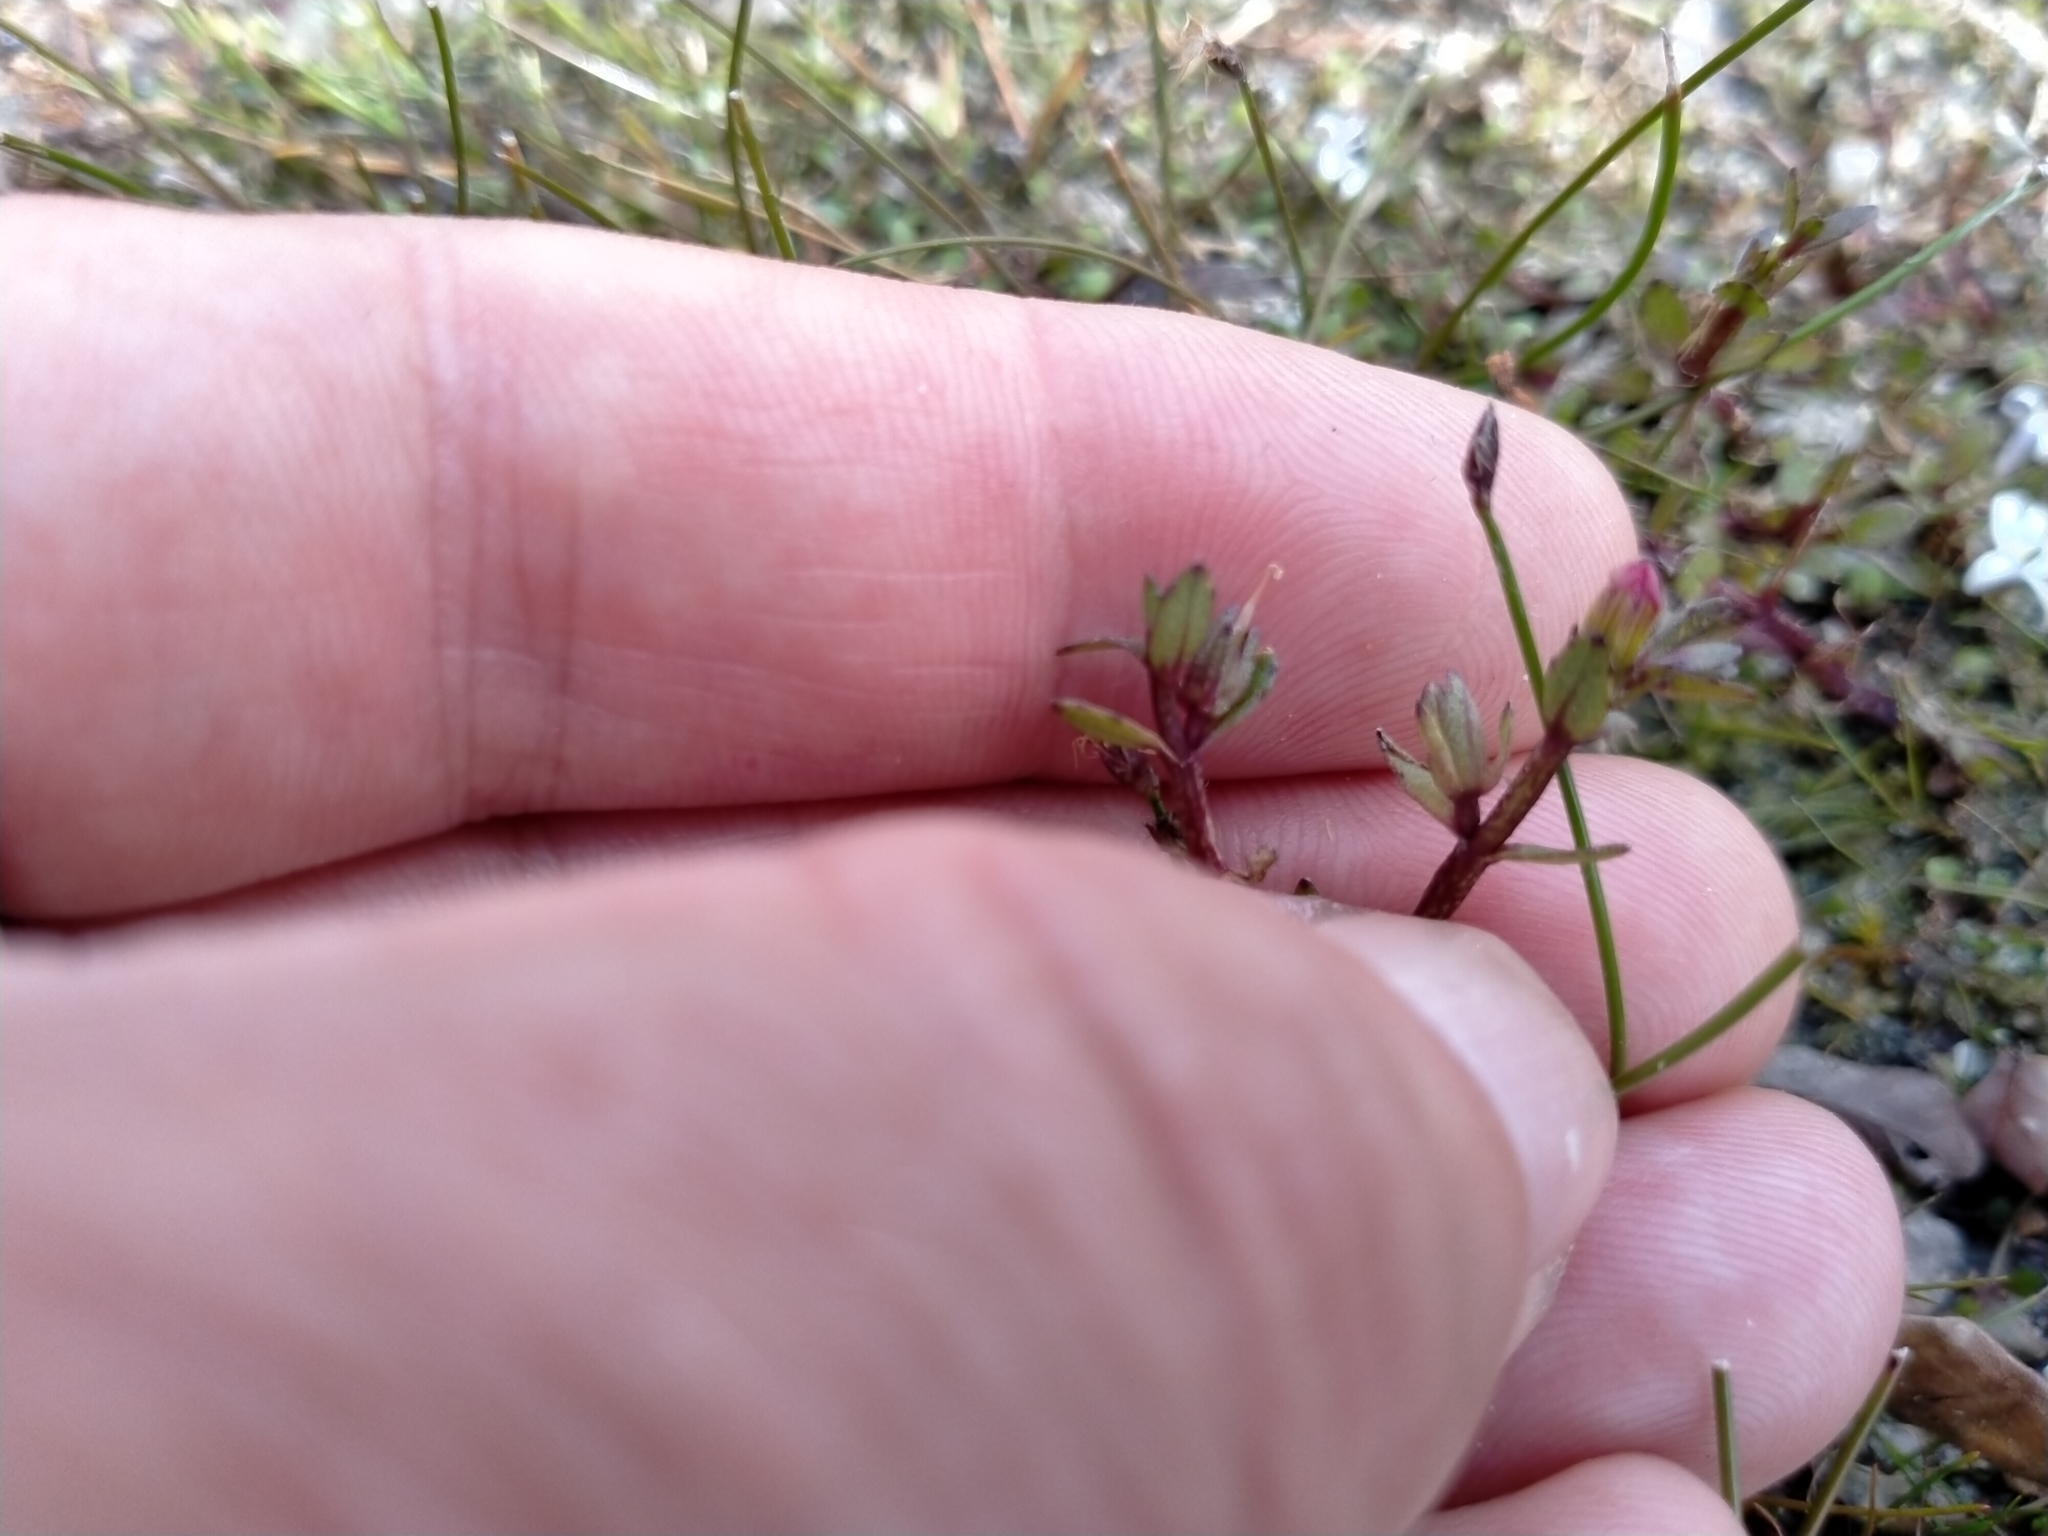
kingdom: Plantae
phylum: Tracheophyta
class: Magnoliopsida
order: Lamiales
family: Plantaginaceae
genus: Gratiola
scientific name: Gratiola sexdentata
